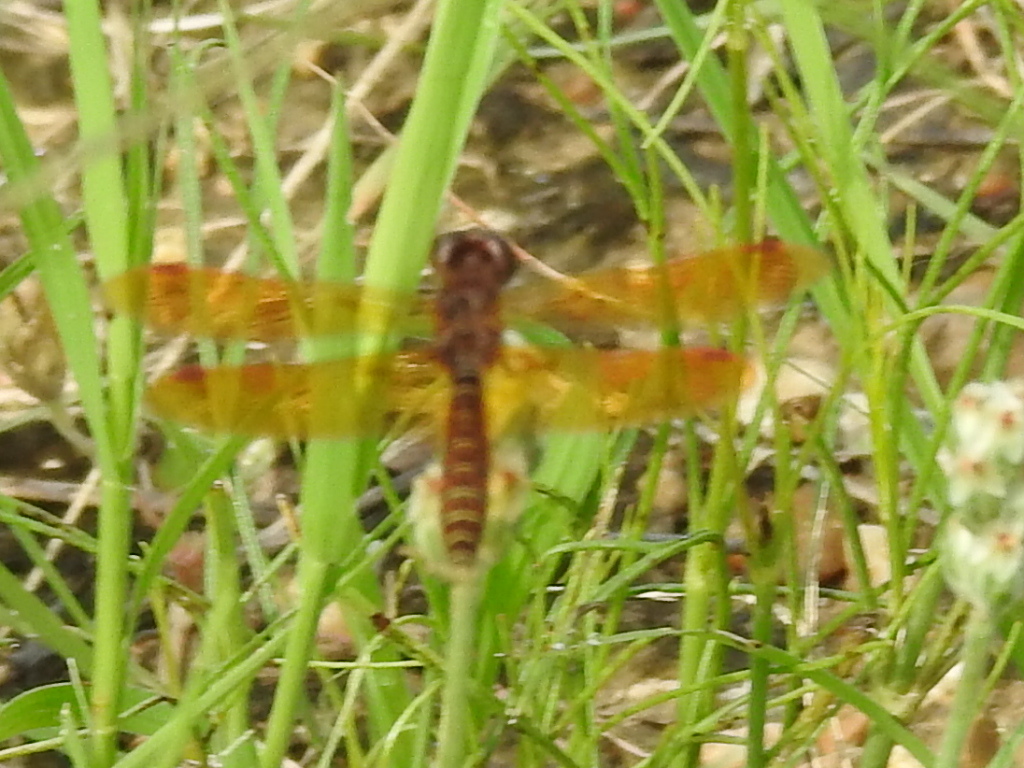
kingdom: Animalia
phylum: Arthropoda
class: Insecta
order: Odonata
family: Libellulidae
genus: Perithemis
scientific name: Perithemis tenera
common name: Eastern amberwing
